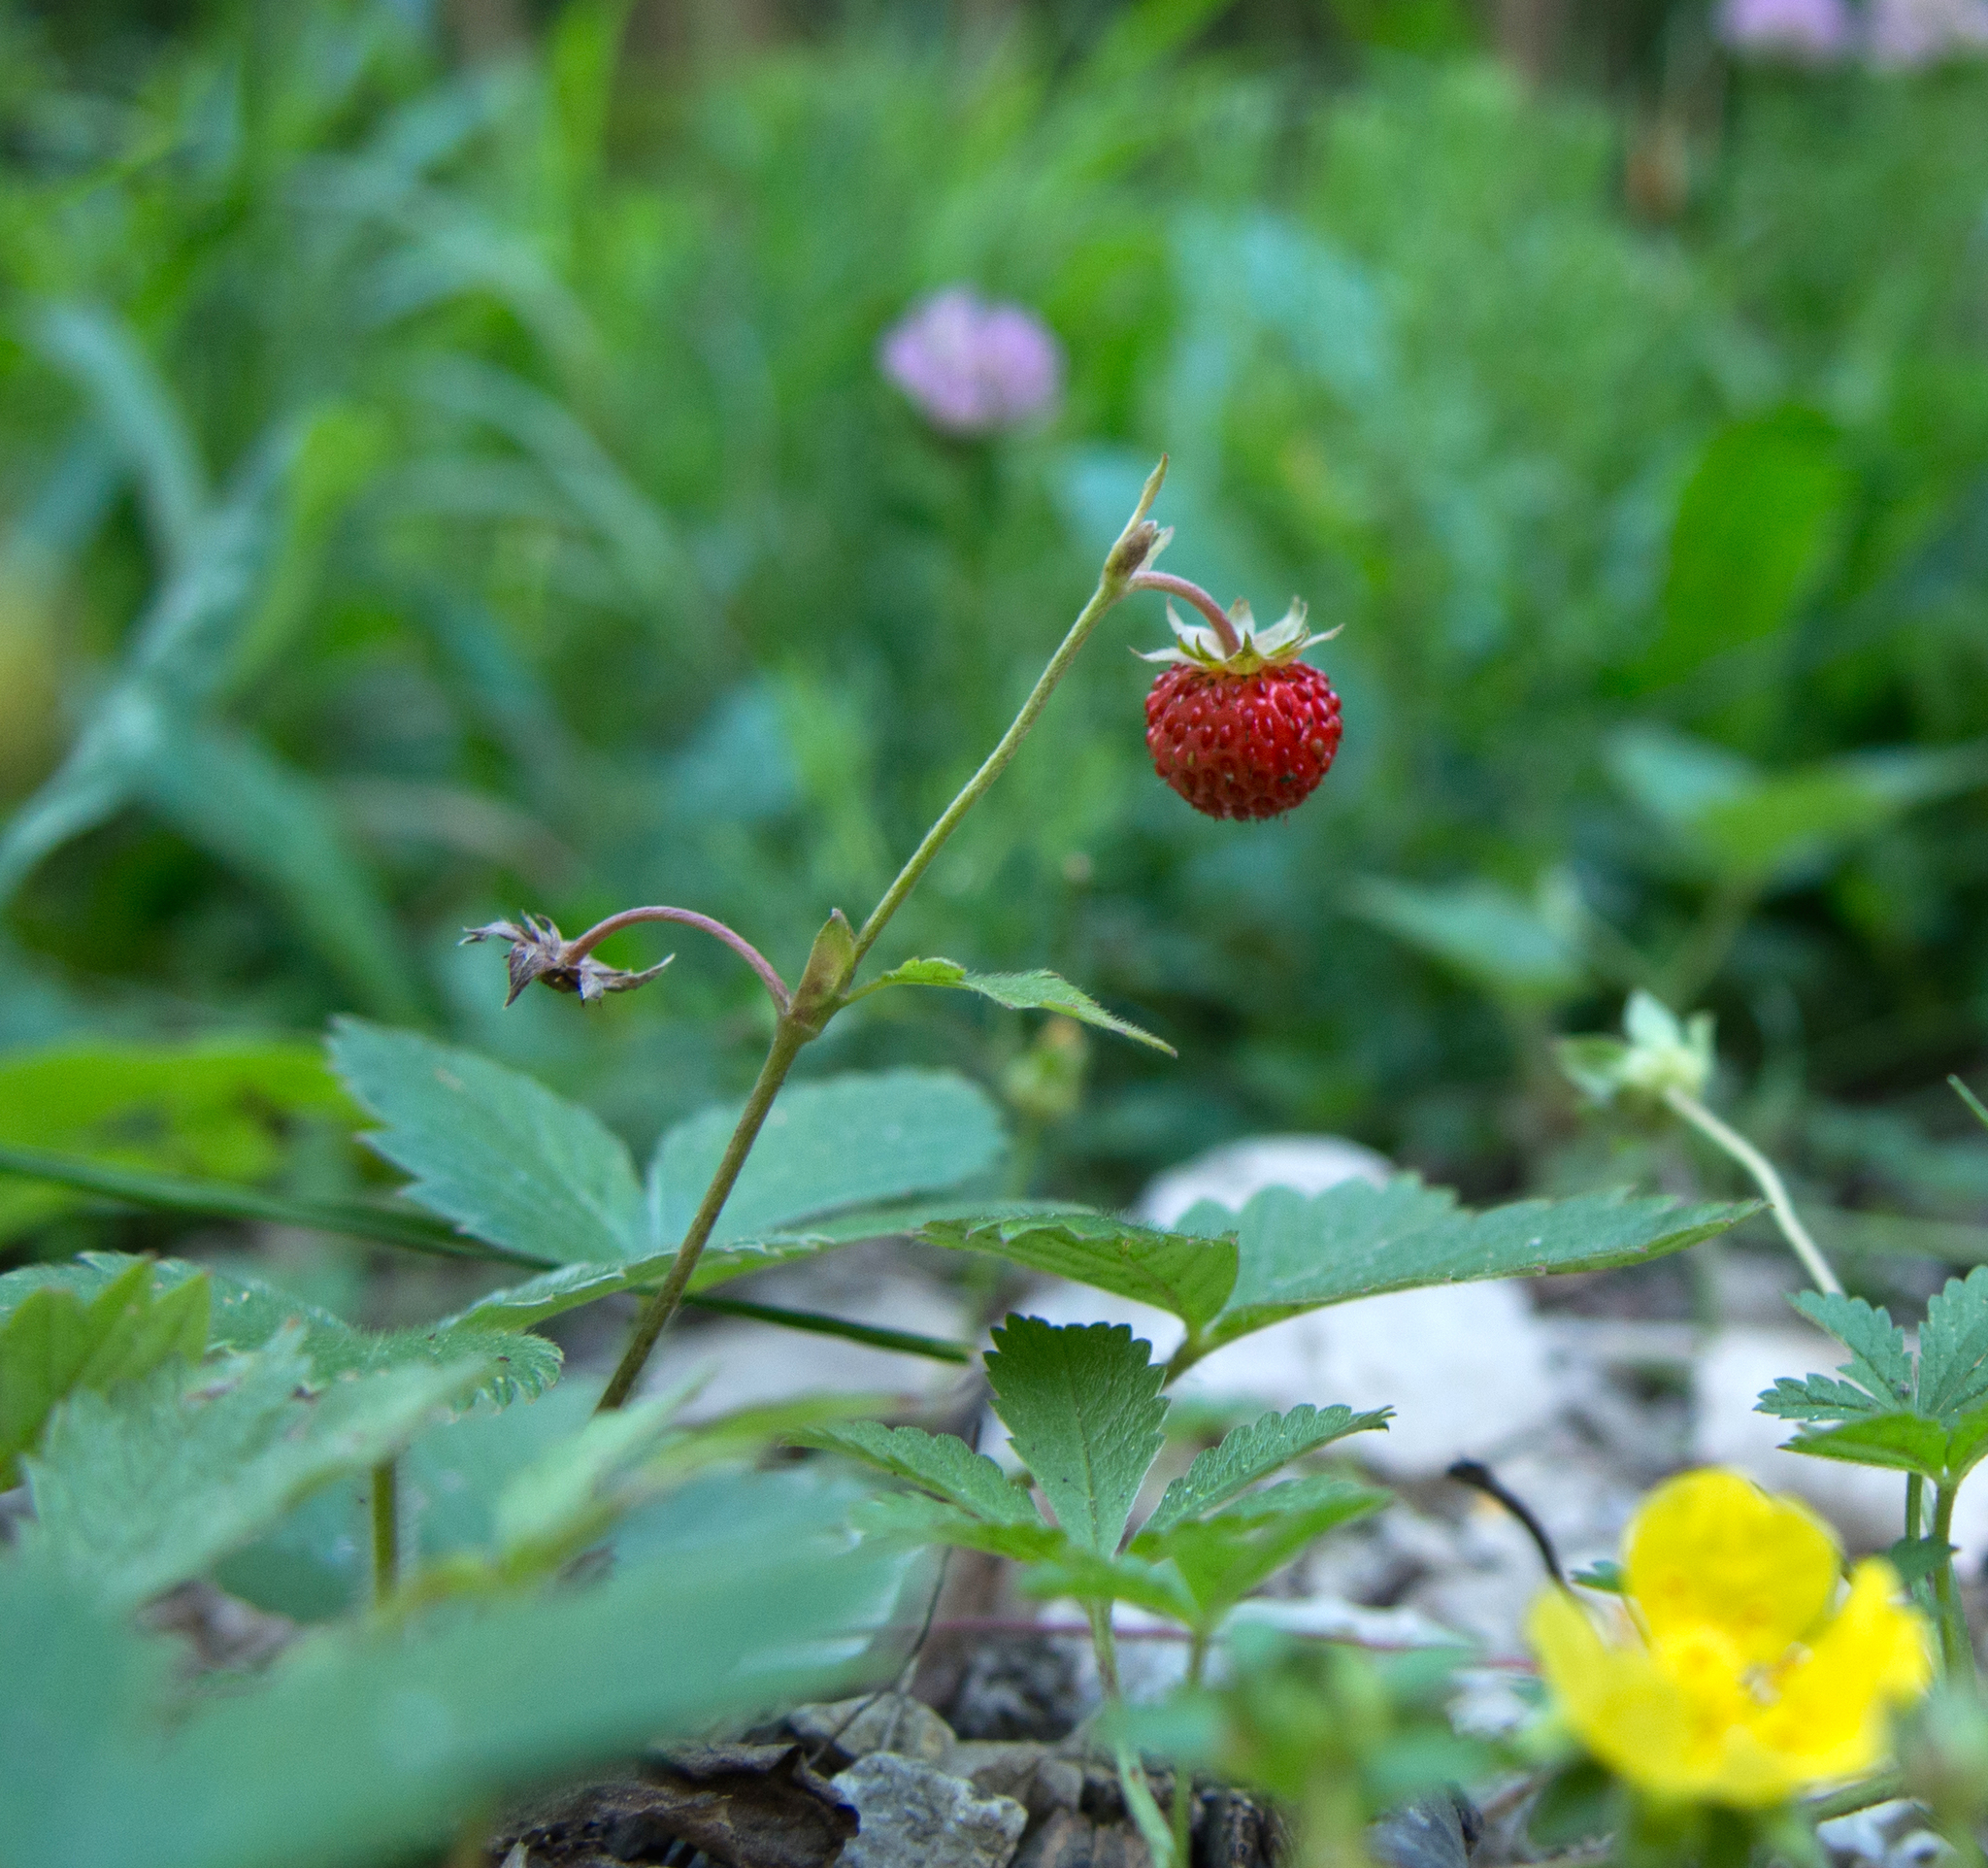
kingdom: Plantae
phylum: Tracheophyta
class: Magnoliopsida
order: Rosales
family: Rosaceae
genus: Fragaria
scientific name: Fragaria vesca
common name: Wild strawberry
